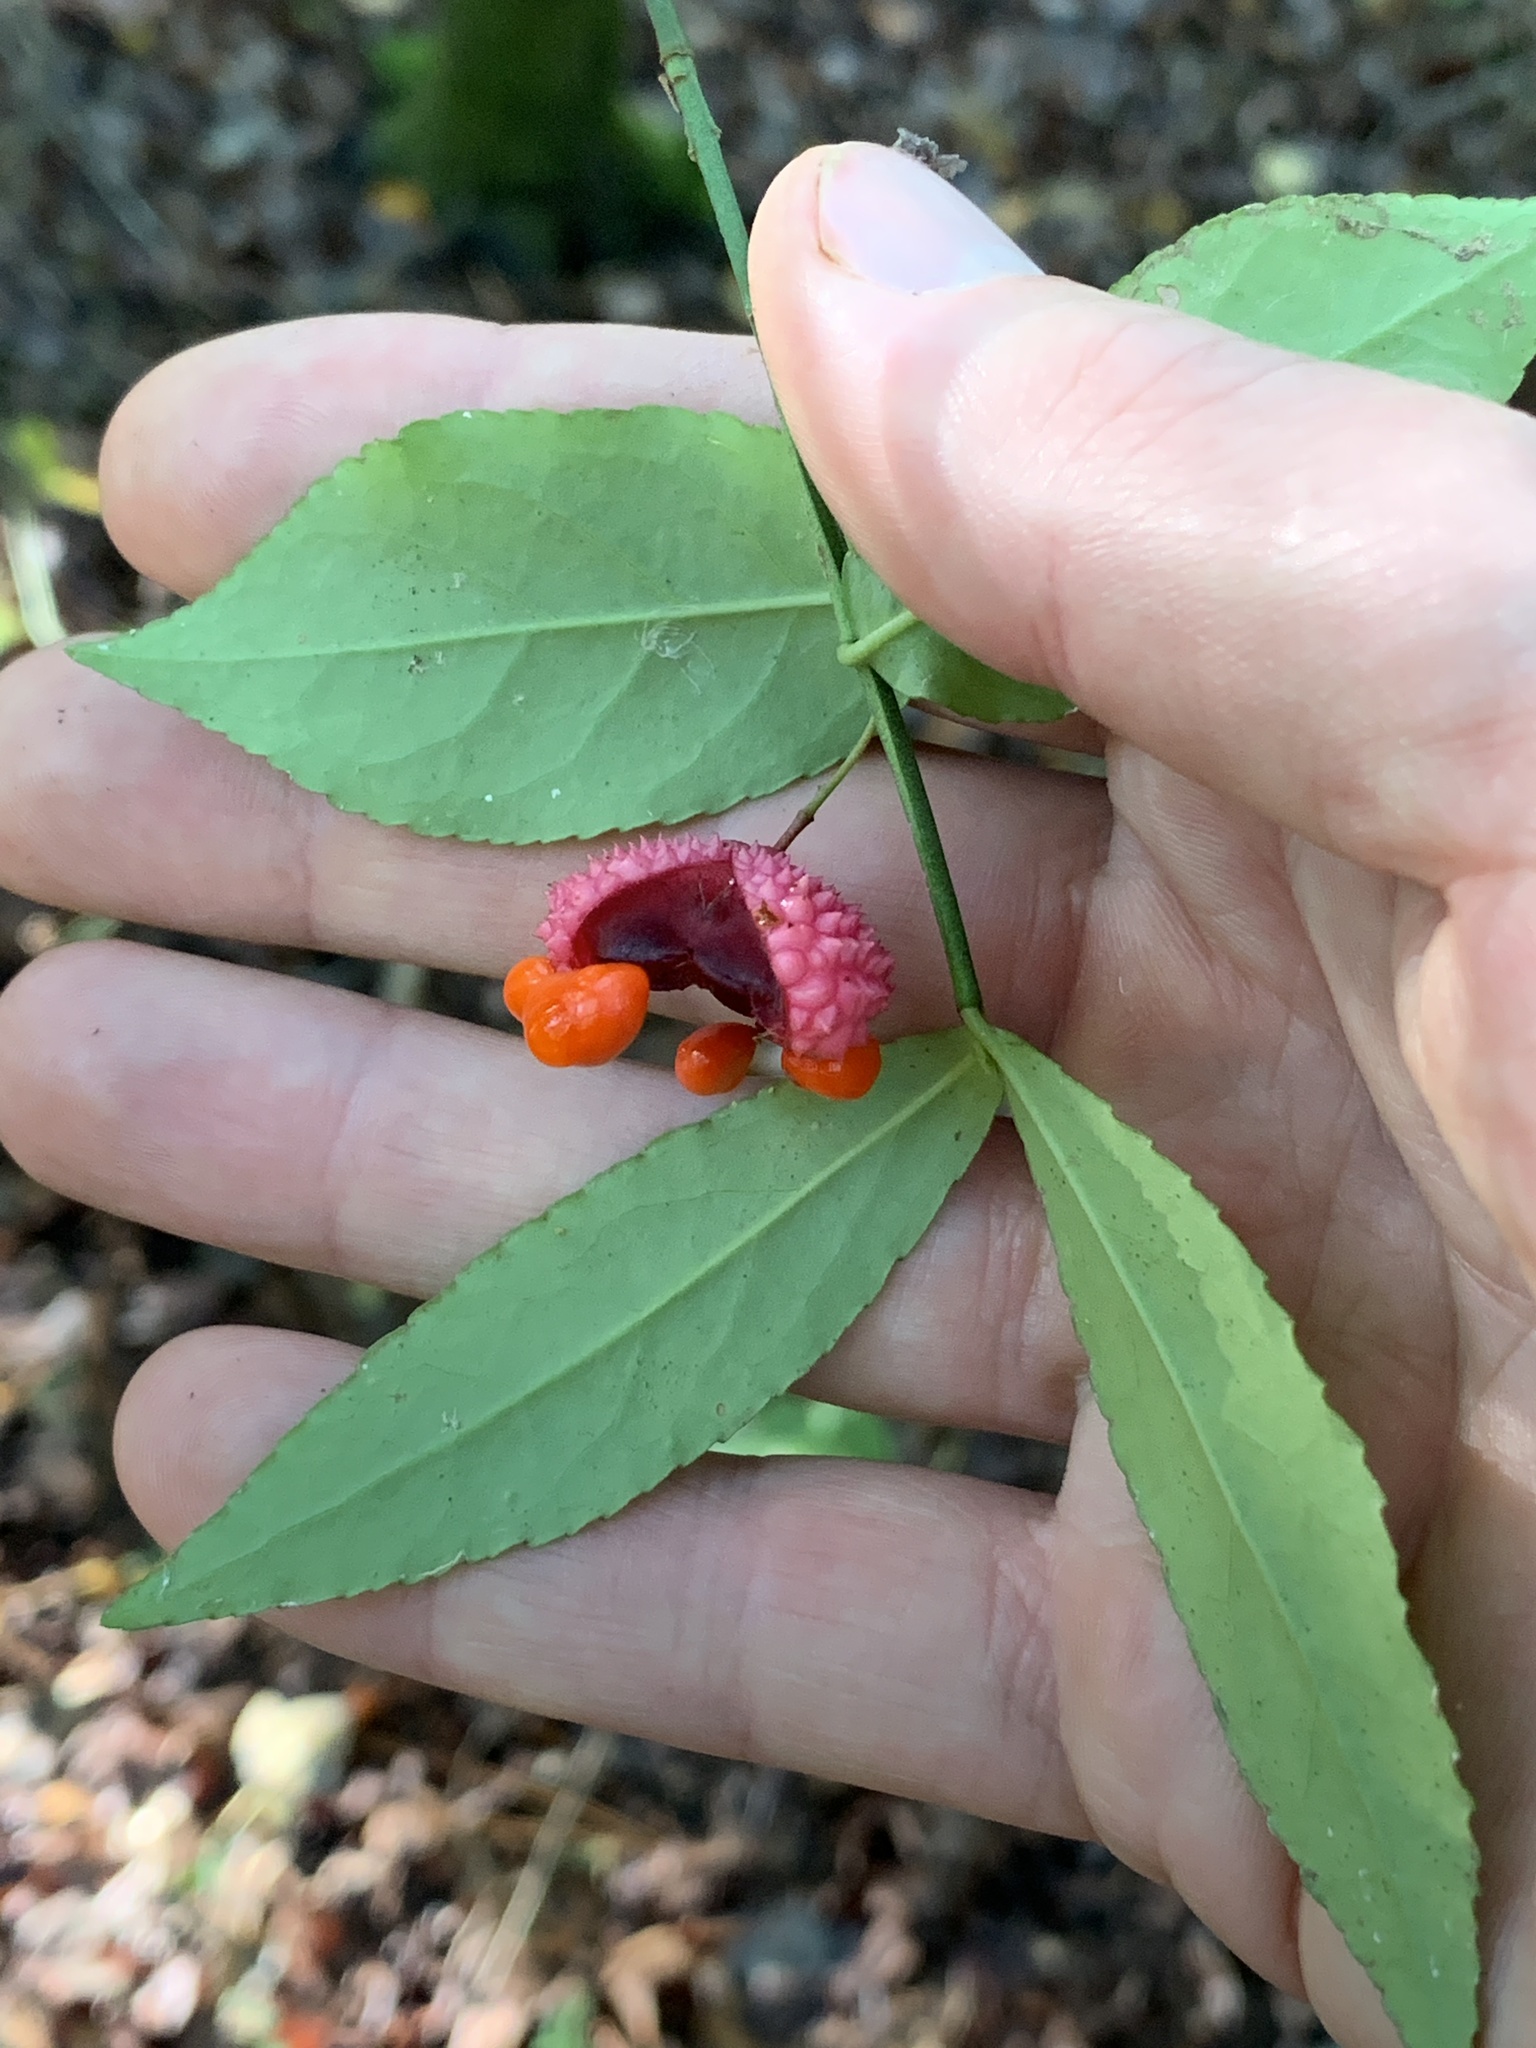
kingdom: Plantae
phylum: Tracheophyta
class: Magnoliopsida
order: Celastrales
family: Celastraceae
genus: Euonymus
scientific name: Euonymus americanus
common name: Bursting-heart
